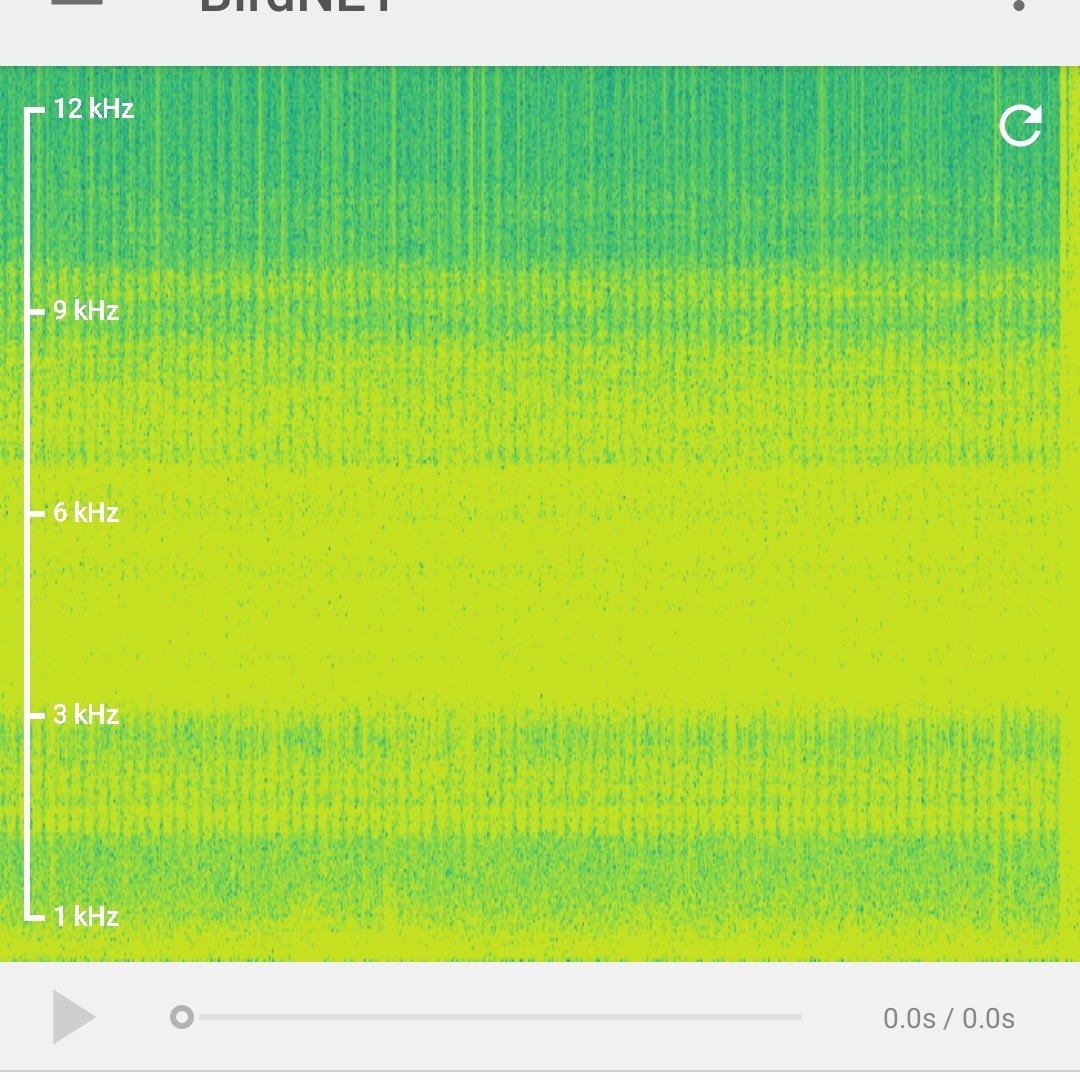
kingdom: Animalia
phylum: Arthropoda
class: Insecta
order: Hemiptera
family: Cicadidae
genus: Cicada
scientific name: Cicada orni
